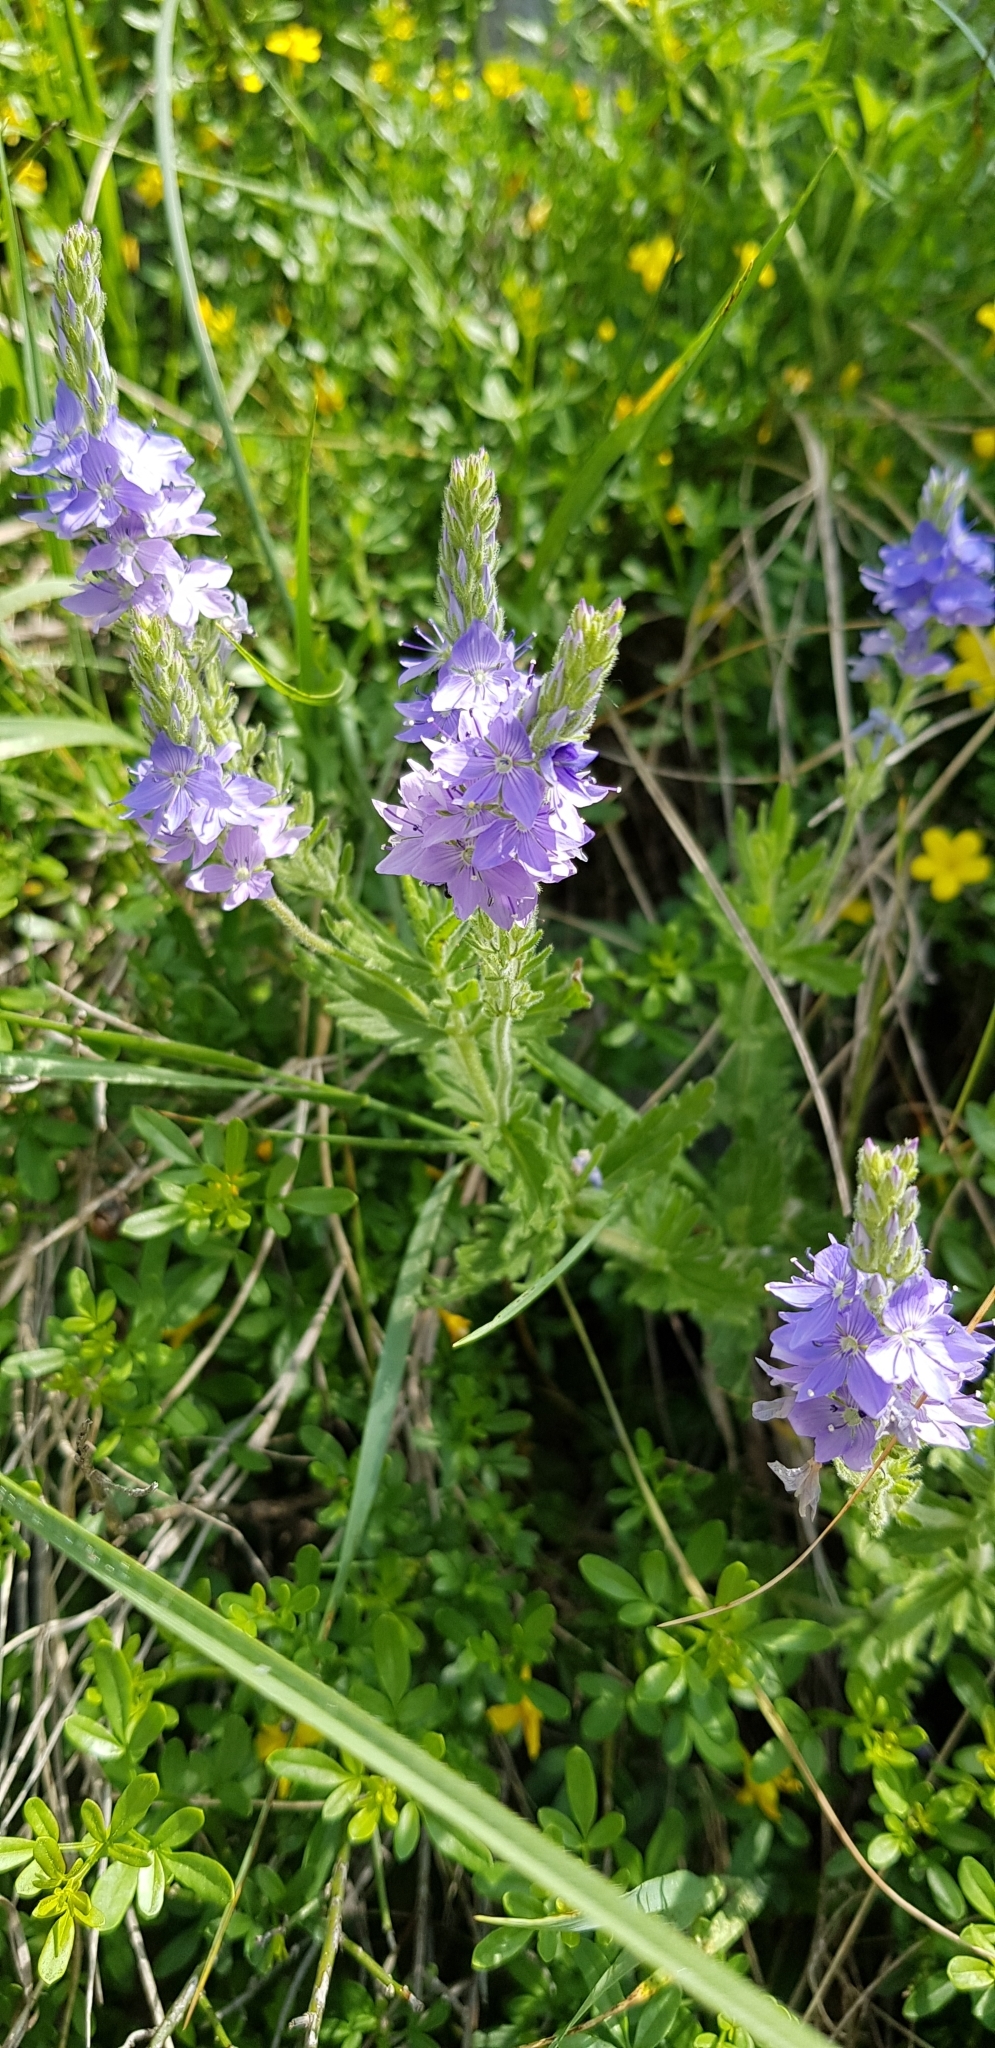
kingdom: Plantae
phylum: Tracheophyta
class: Magnoliopsida
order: Lamiales
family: Plantaginaceae
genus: Veronica
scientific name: Veronica austriaca
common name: Large speedwell
